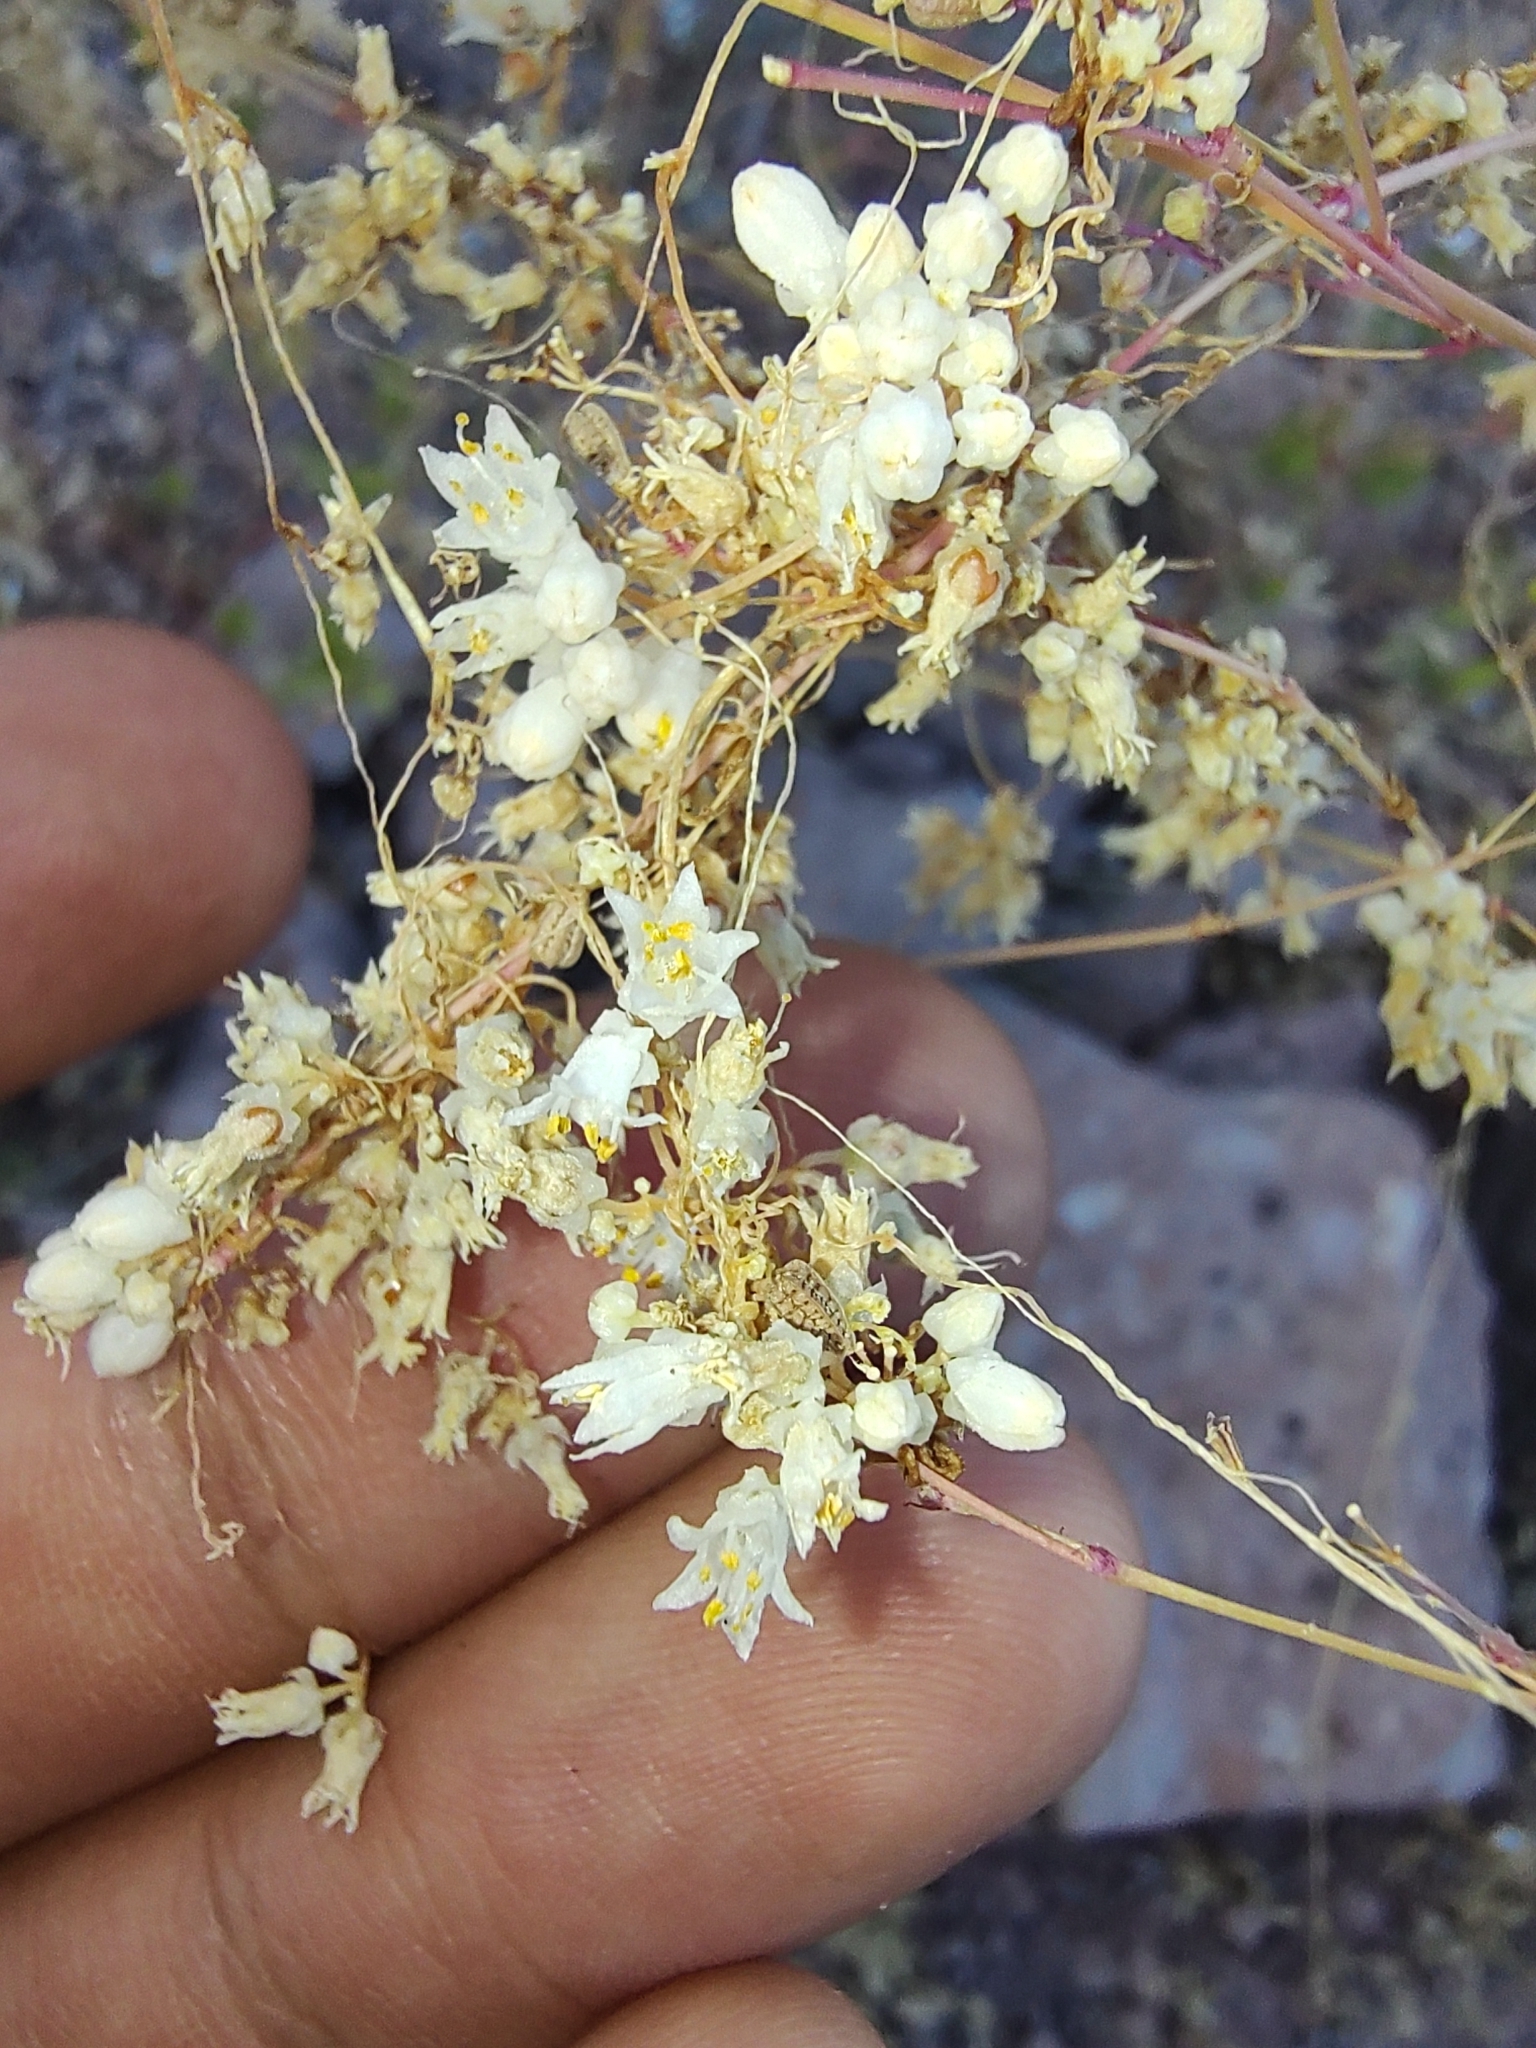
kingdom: Plantae
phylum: Tracheophyta
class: Magnoliopsida
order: Solanales
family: Convolvulaceae
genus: Cuscuta
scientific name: Cuscuta tuberculata
